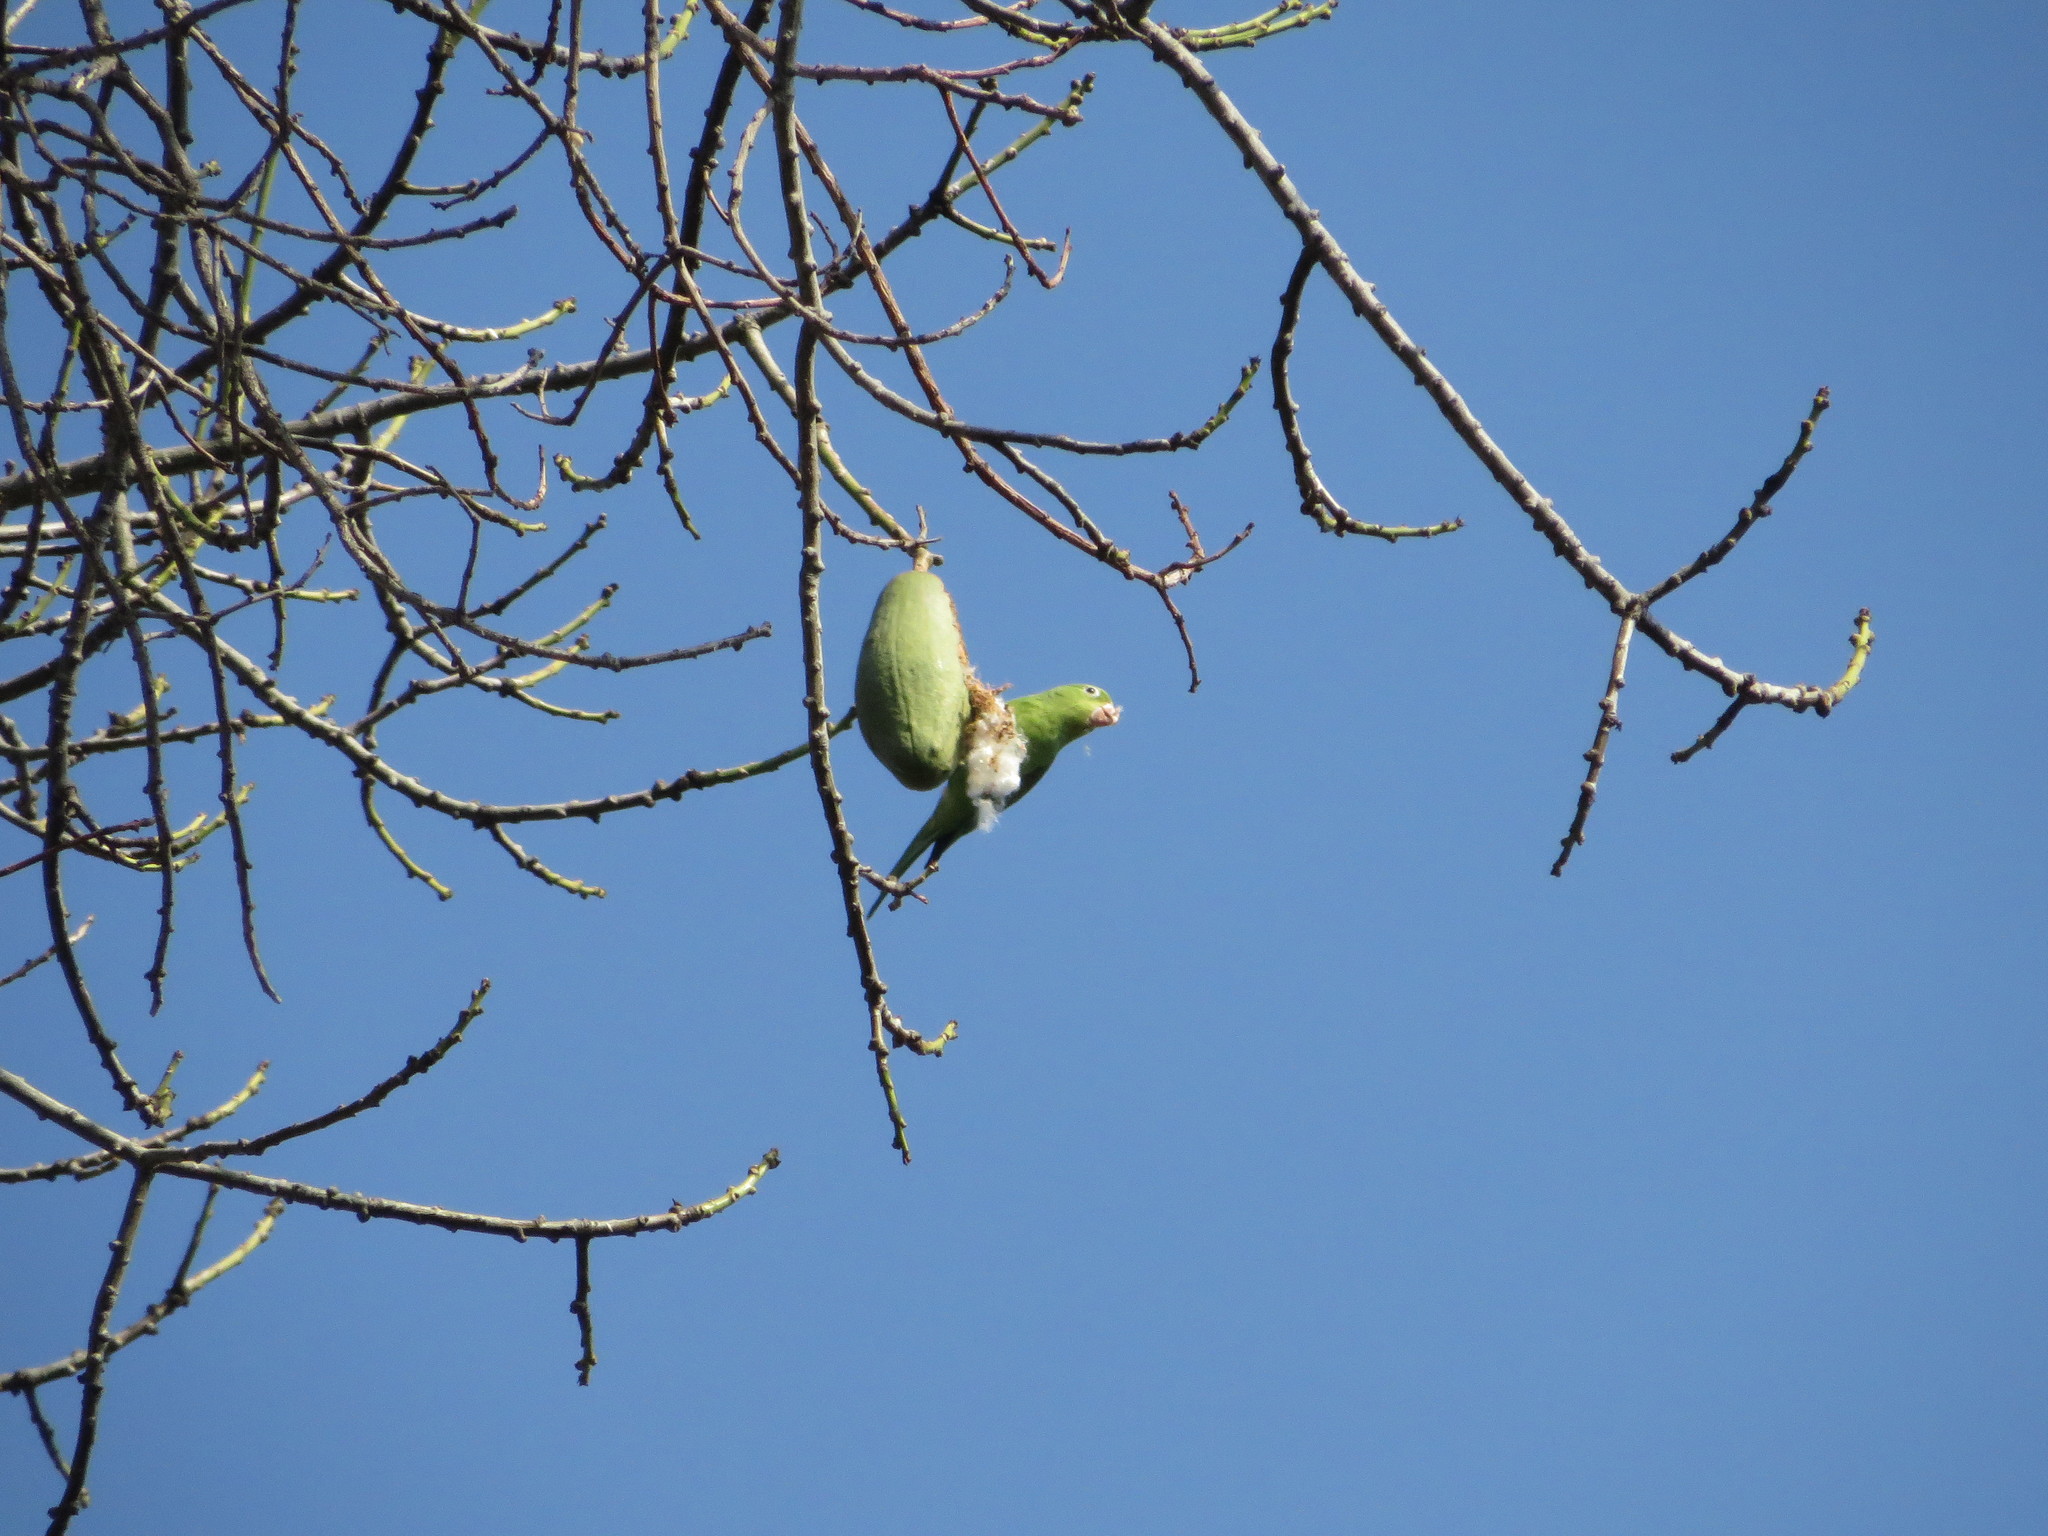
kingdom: Animalia
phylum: Chordata
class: Aves
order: Psittaciformes
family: Psittacidae
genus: Brotogeris
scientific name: Brotogeris chiriri
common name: Yellow-chevroned parakeet
